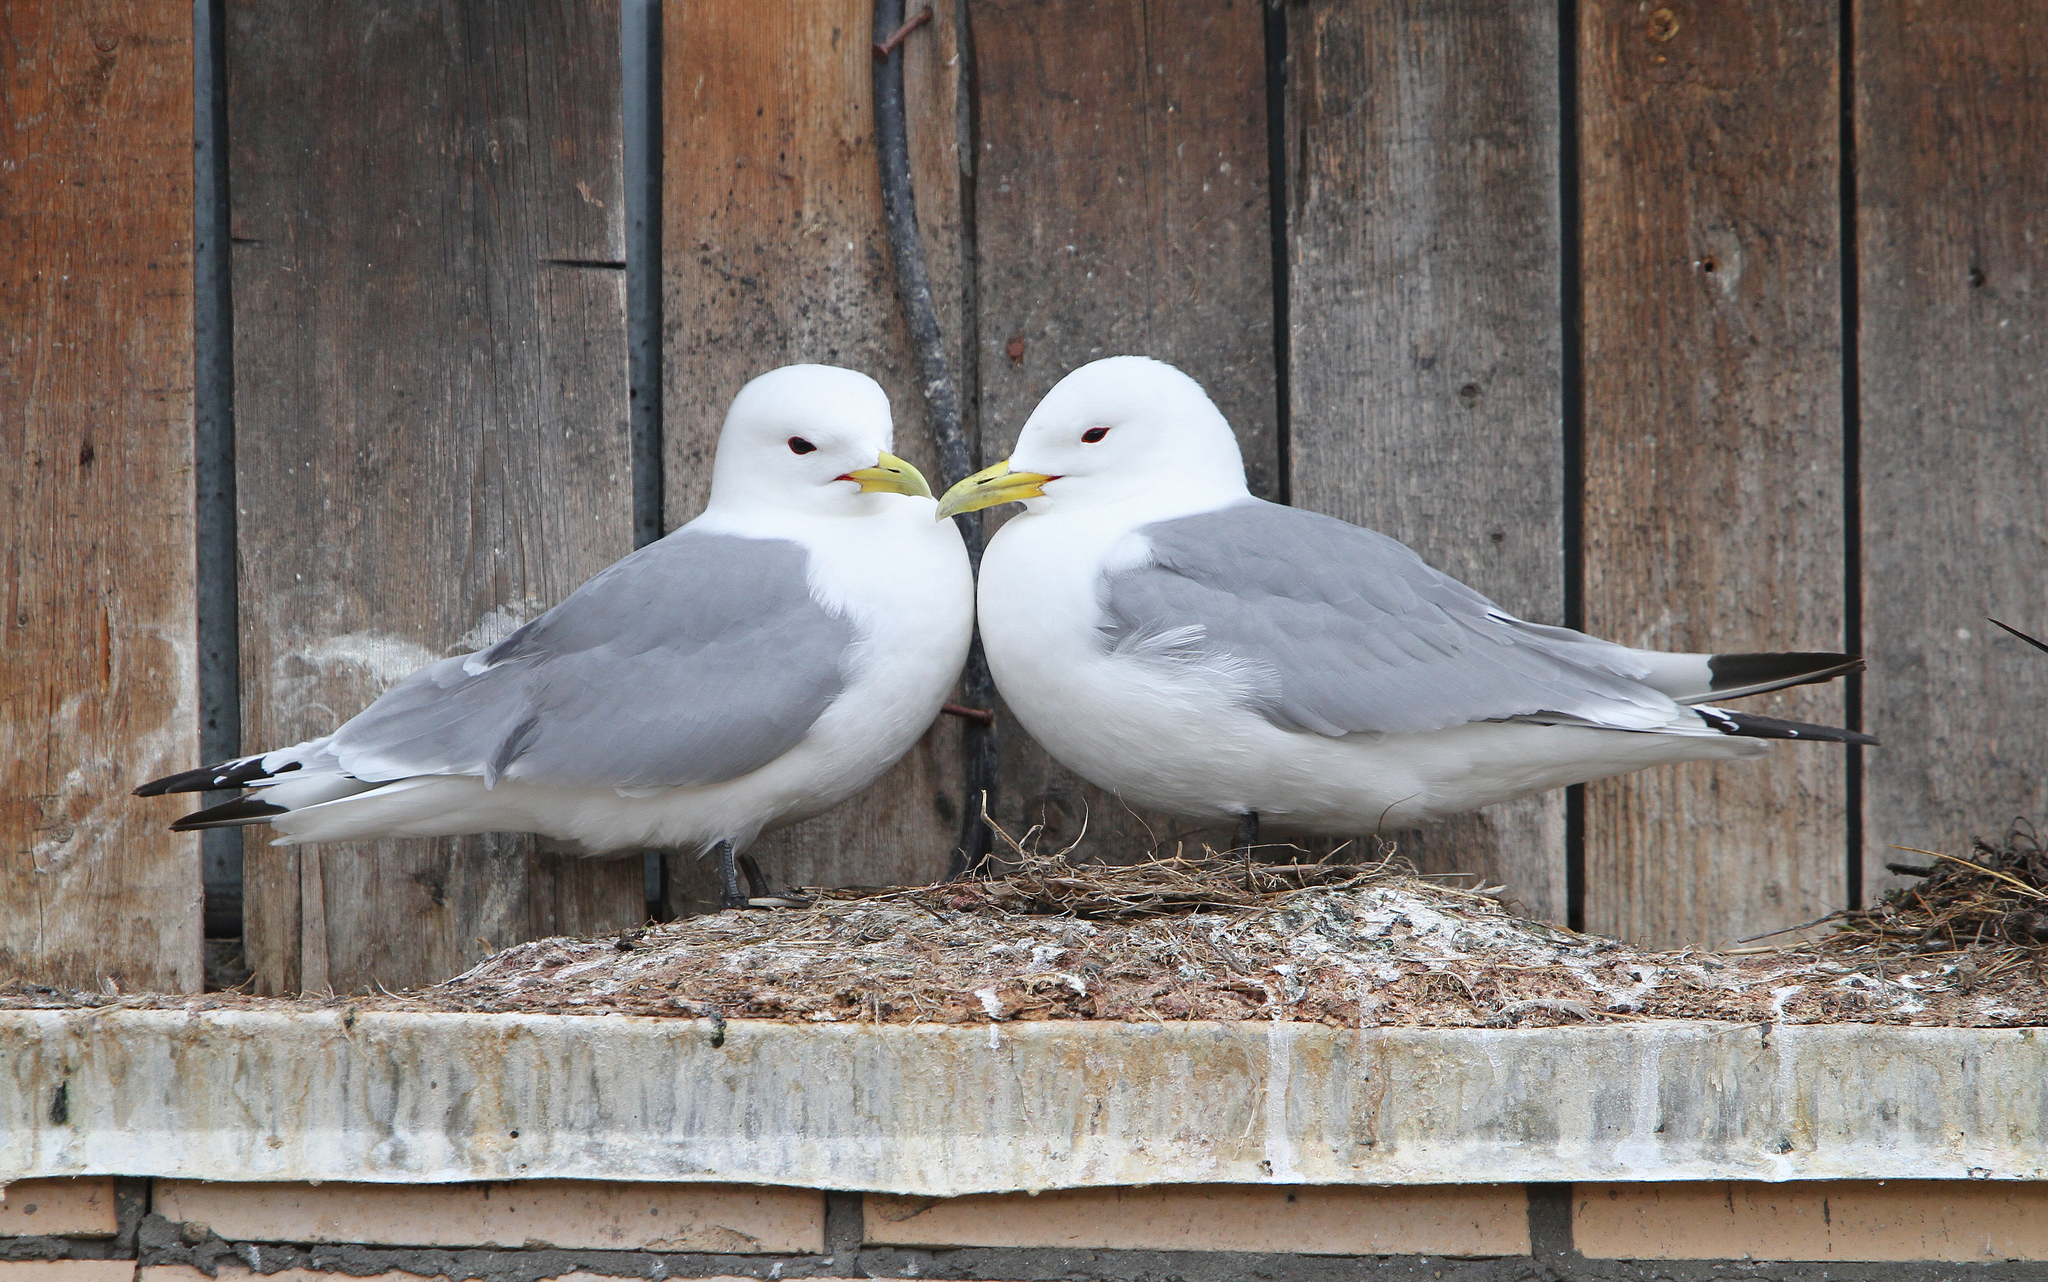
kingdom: Animalia
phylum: Chordata
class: Aves
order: Charadriiformes
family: Laridae
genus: Rissa
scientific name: Rissa tridactyla
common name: Black-legged kittiwake
